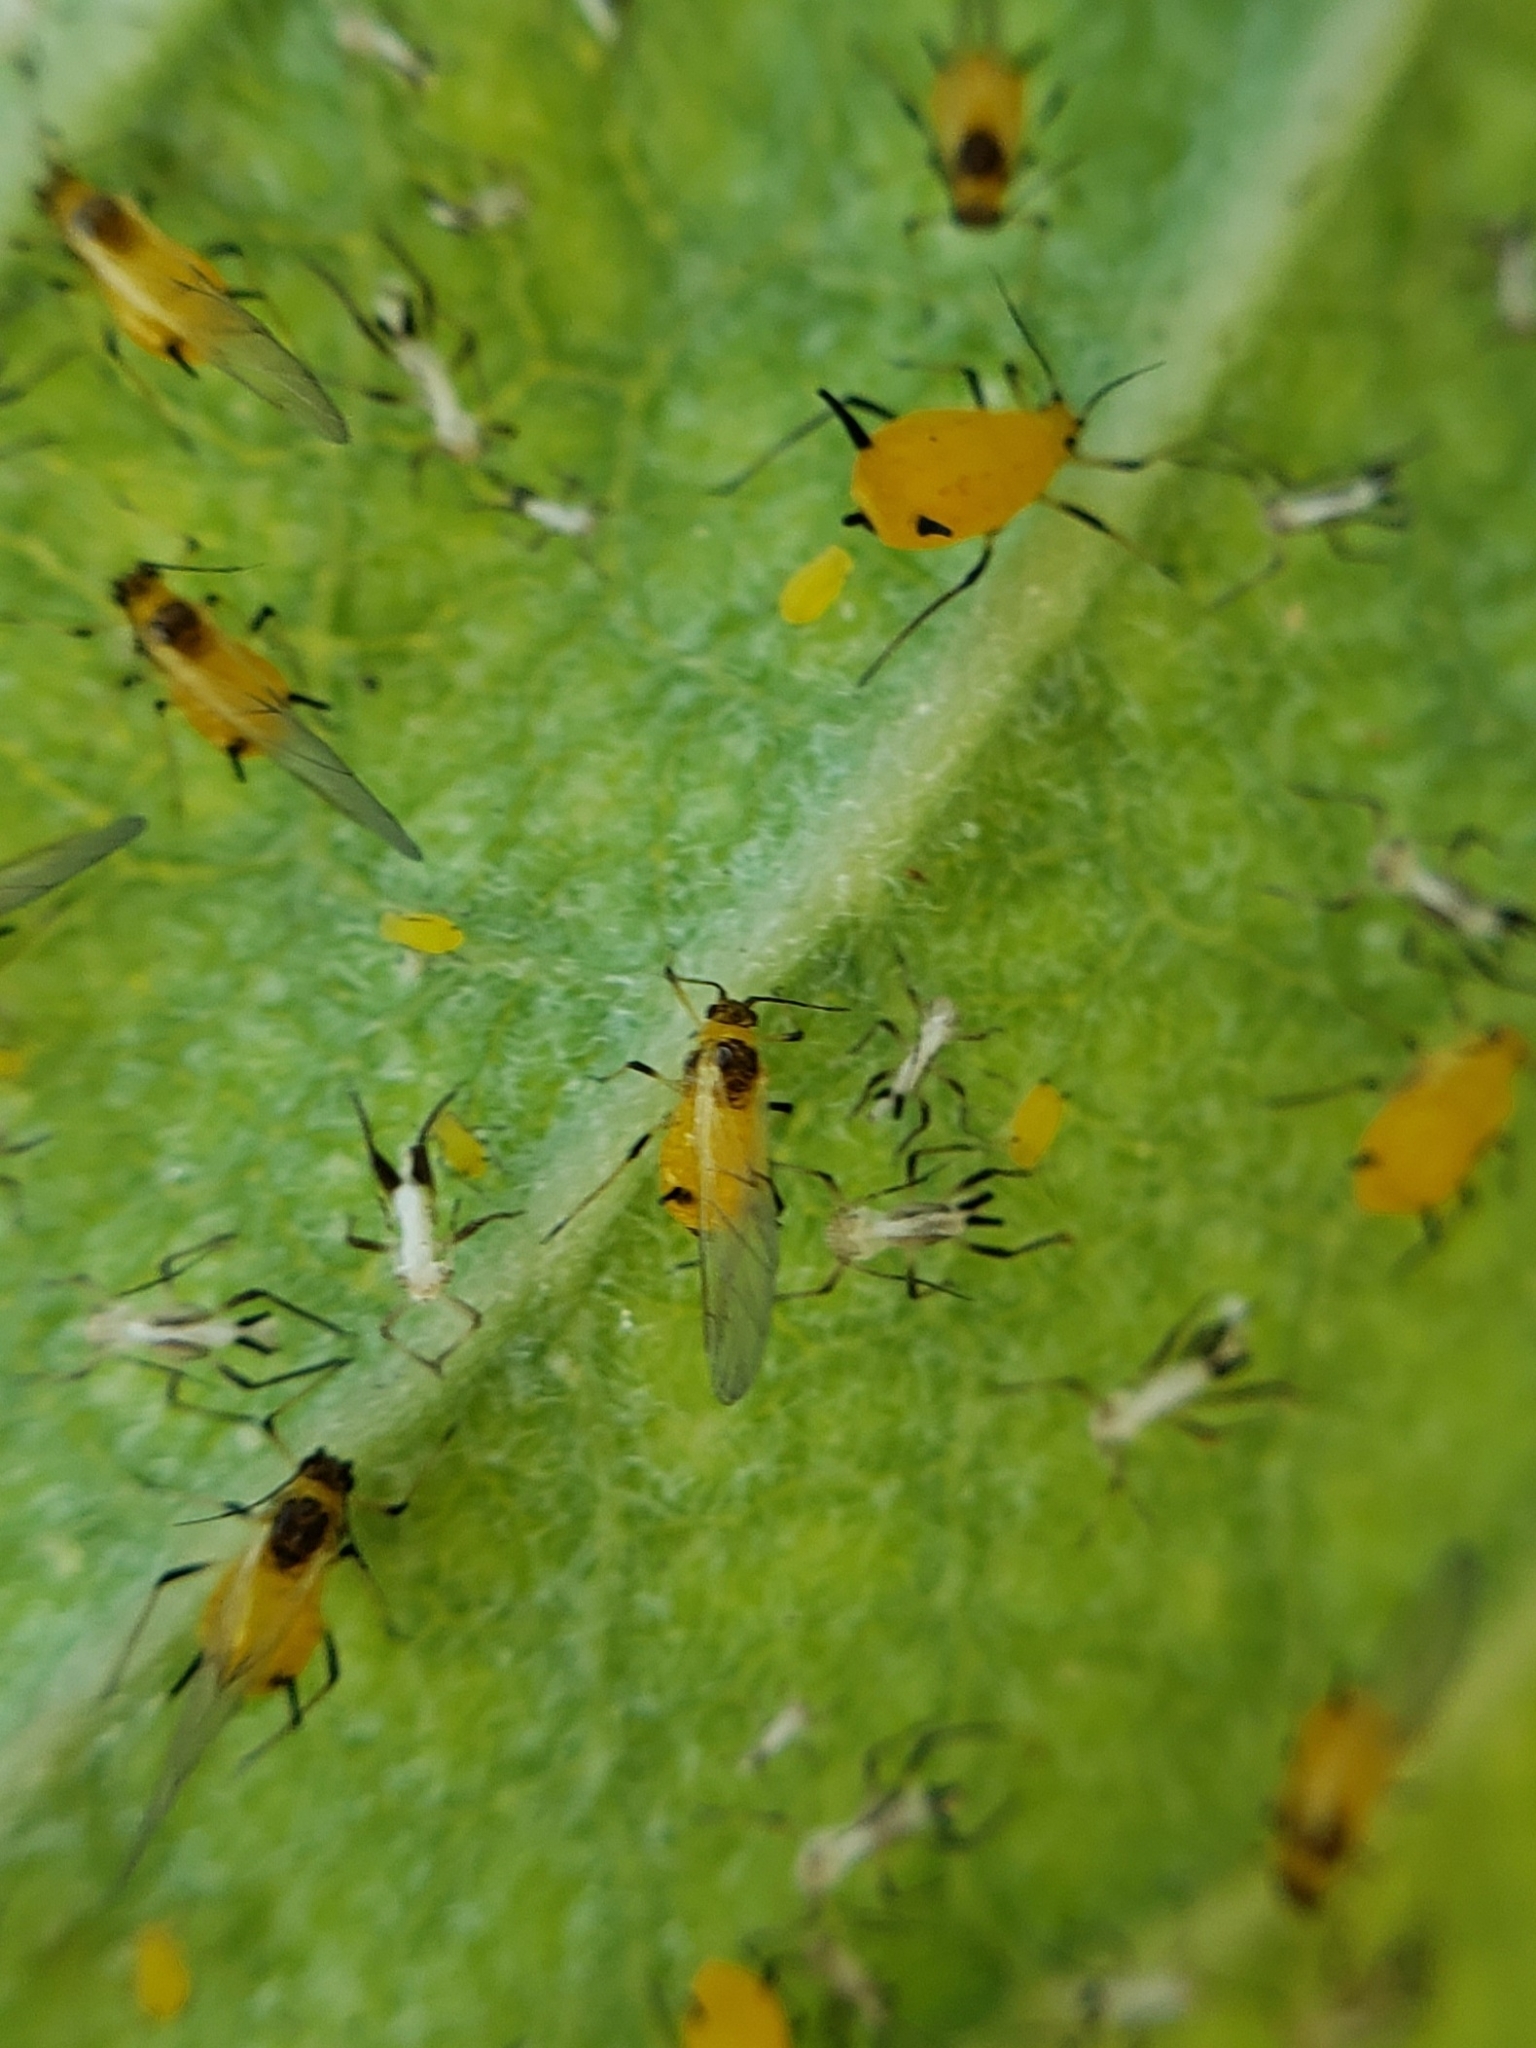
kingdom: Animalia
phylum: Arthropoda
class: Insecta
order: Hemiptera
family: Aphididae
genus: Aphis
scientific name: Aphis nerii
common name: Oleander aphid
